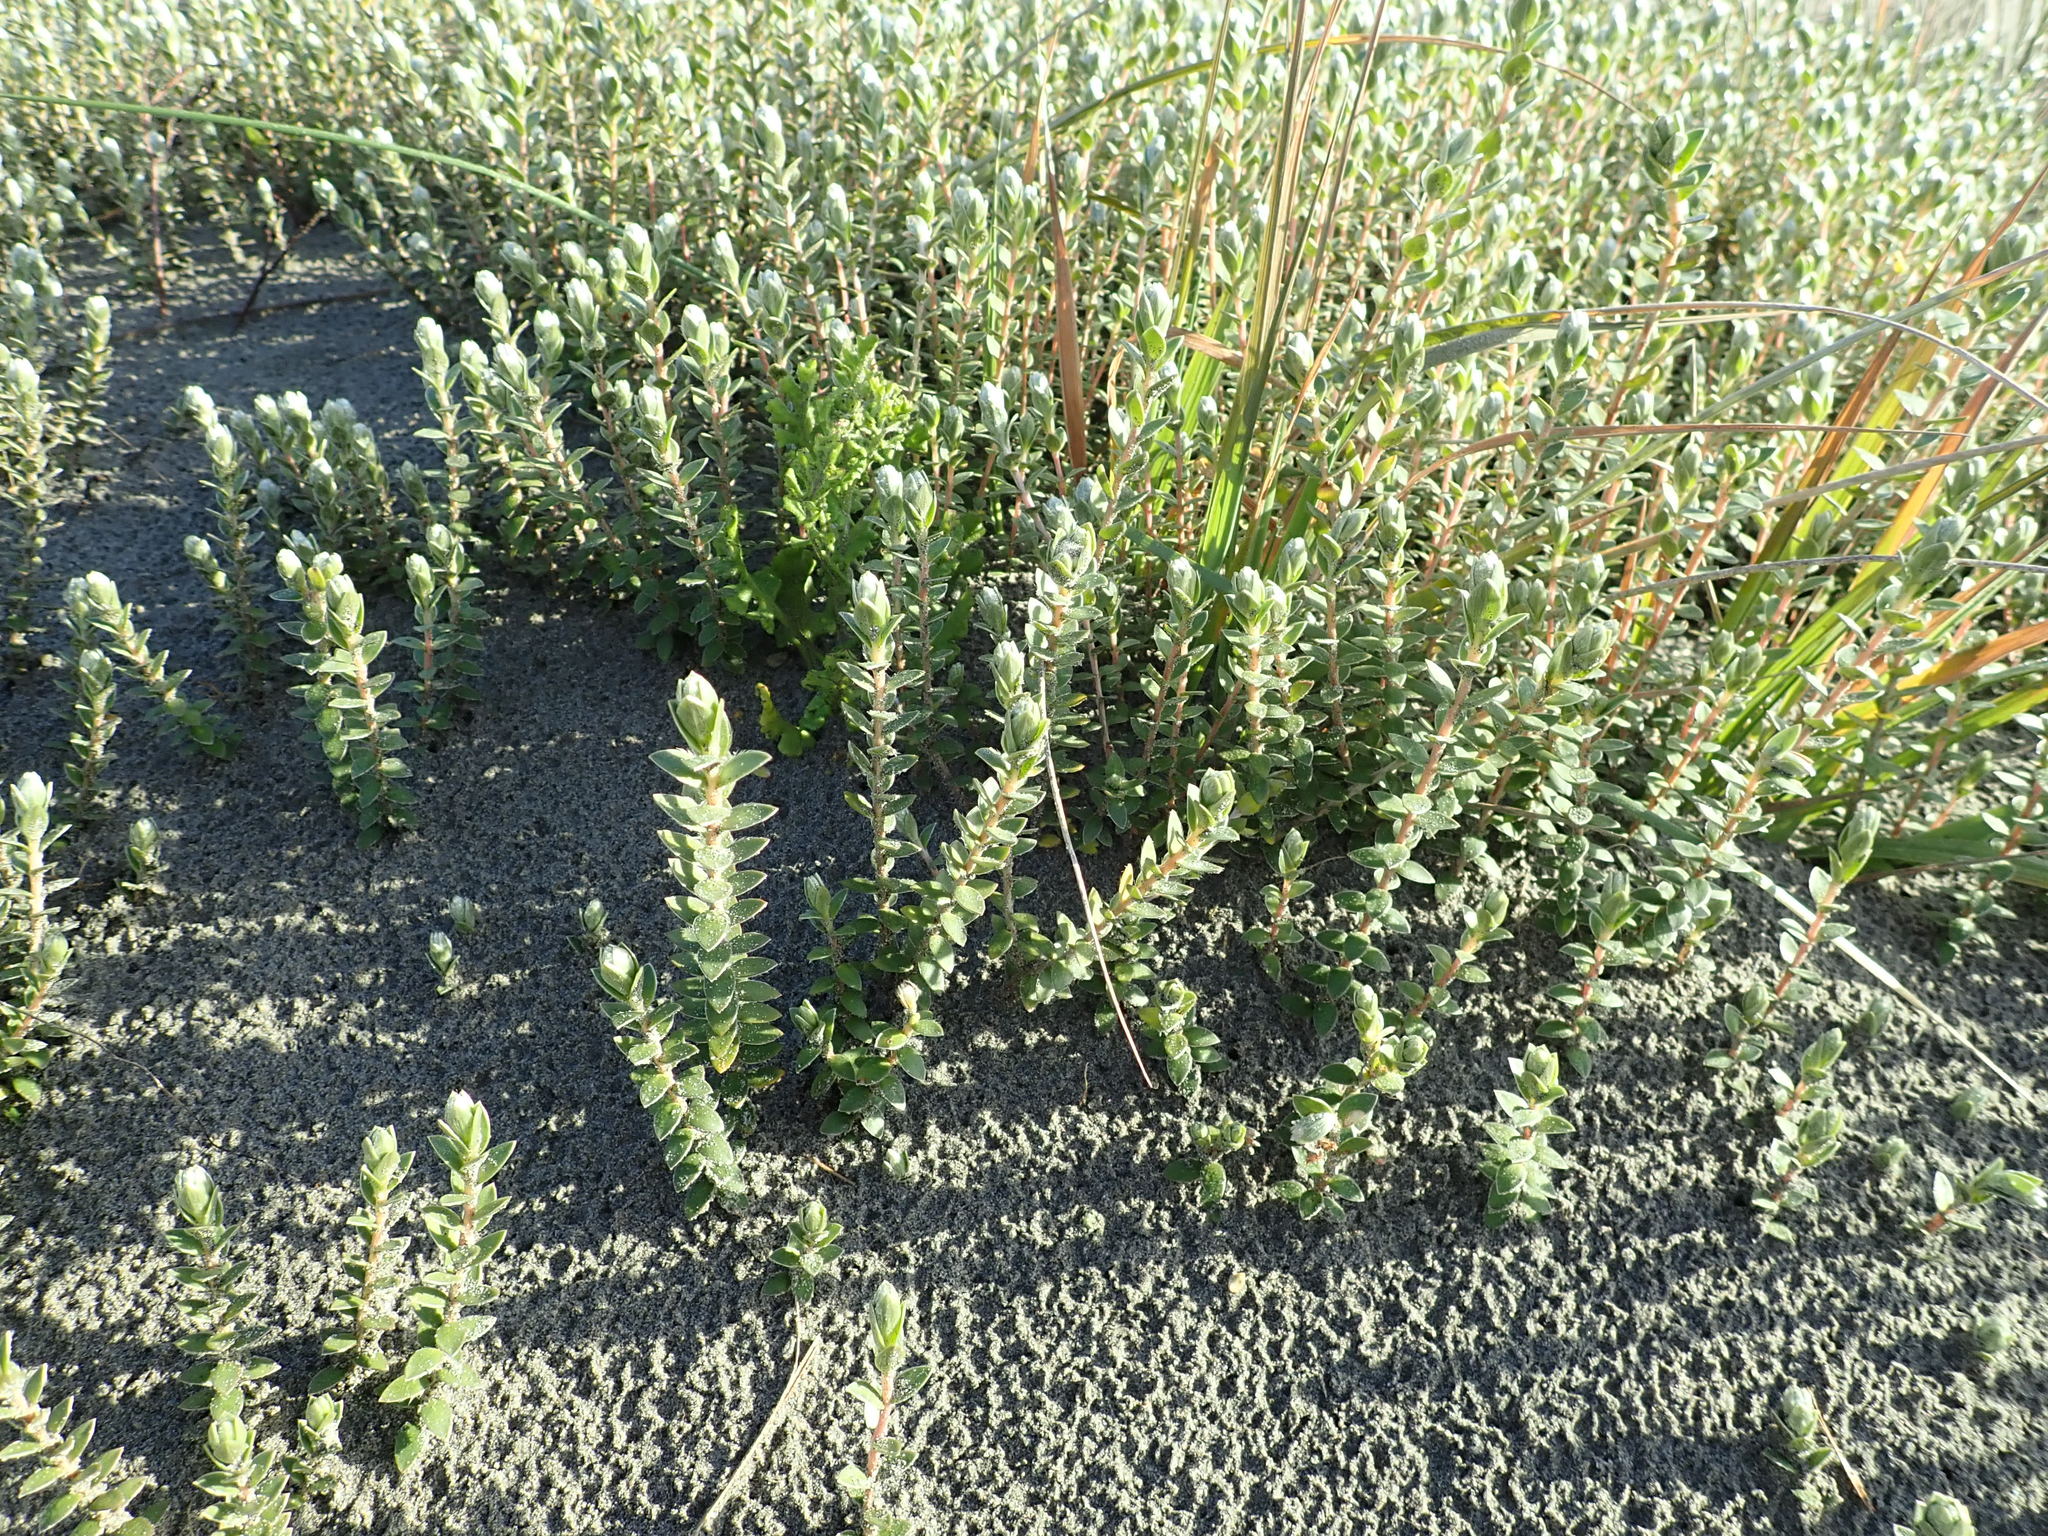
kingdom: Plantae
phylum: Tracheophyta
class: Magnoliopsida
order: Malvales
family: Thymelaeaceae
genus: Pimelea
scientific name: Pimelea villosa
